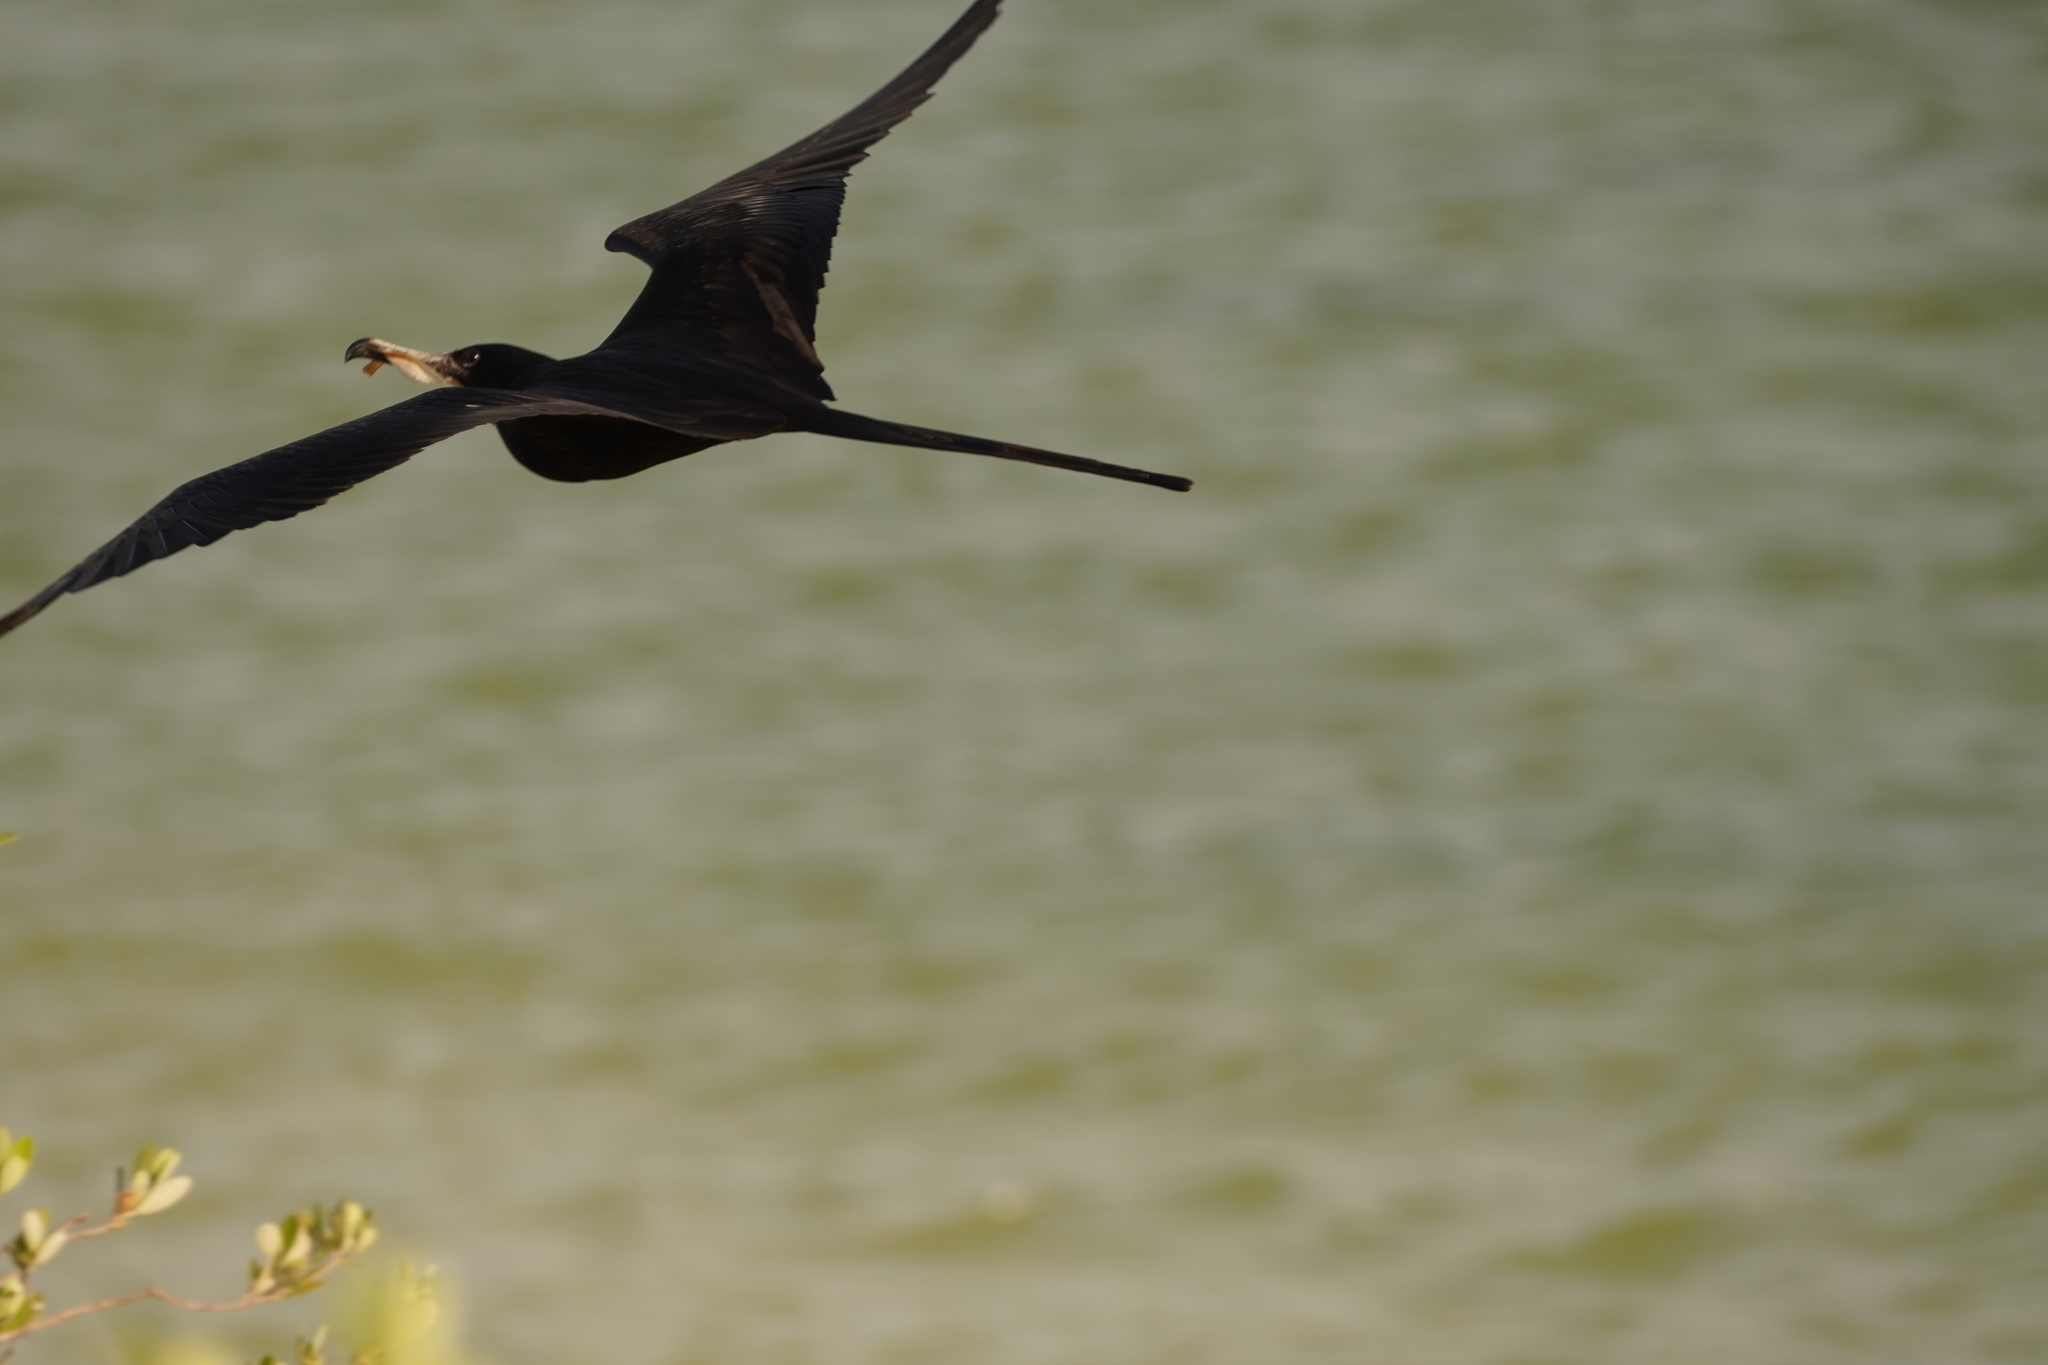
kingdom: Animalia
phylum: Chordata
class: Aves
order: Suliformes
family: Fregatidae
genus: Fregata
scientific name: Fregata magnificens
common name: Magnificent frigatebird
